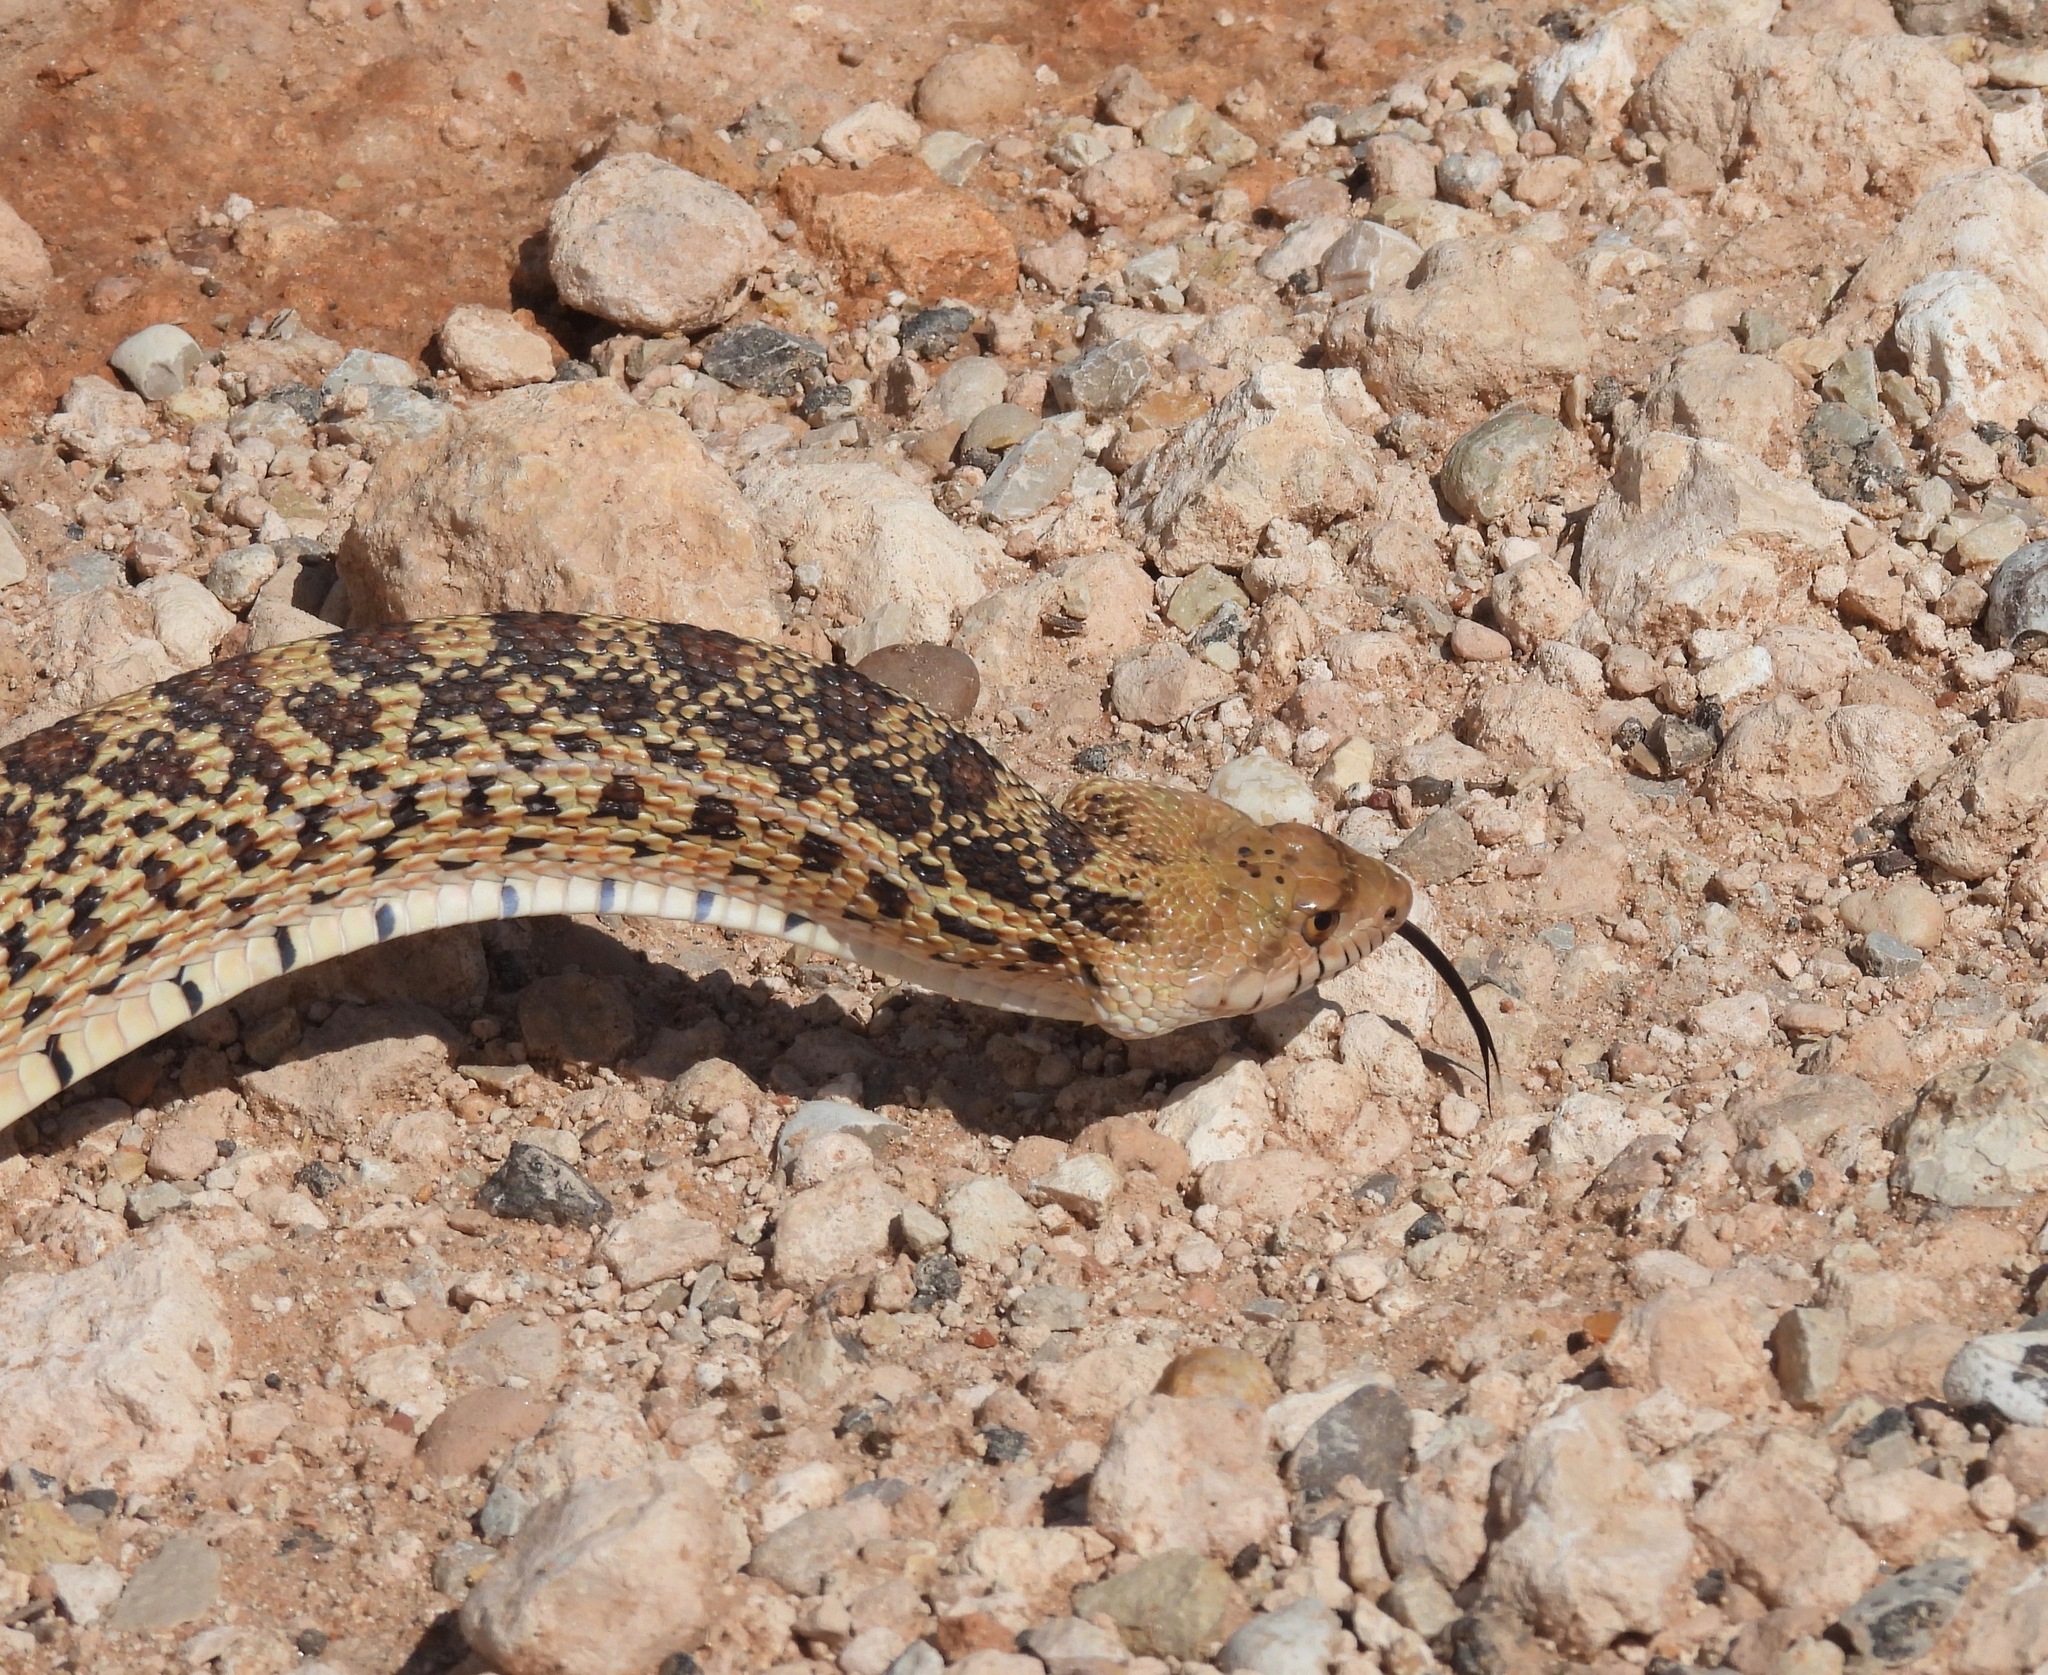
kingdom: Animalia
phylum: Chordata
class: Squamata
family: Colubridae
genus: Pituophis
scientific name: Pituophis catenifer
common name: Gopher snake
